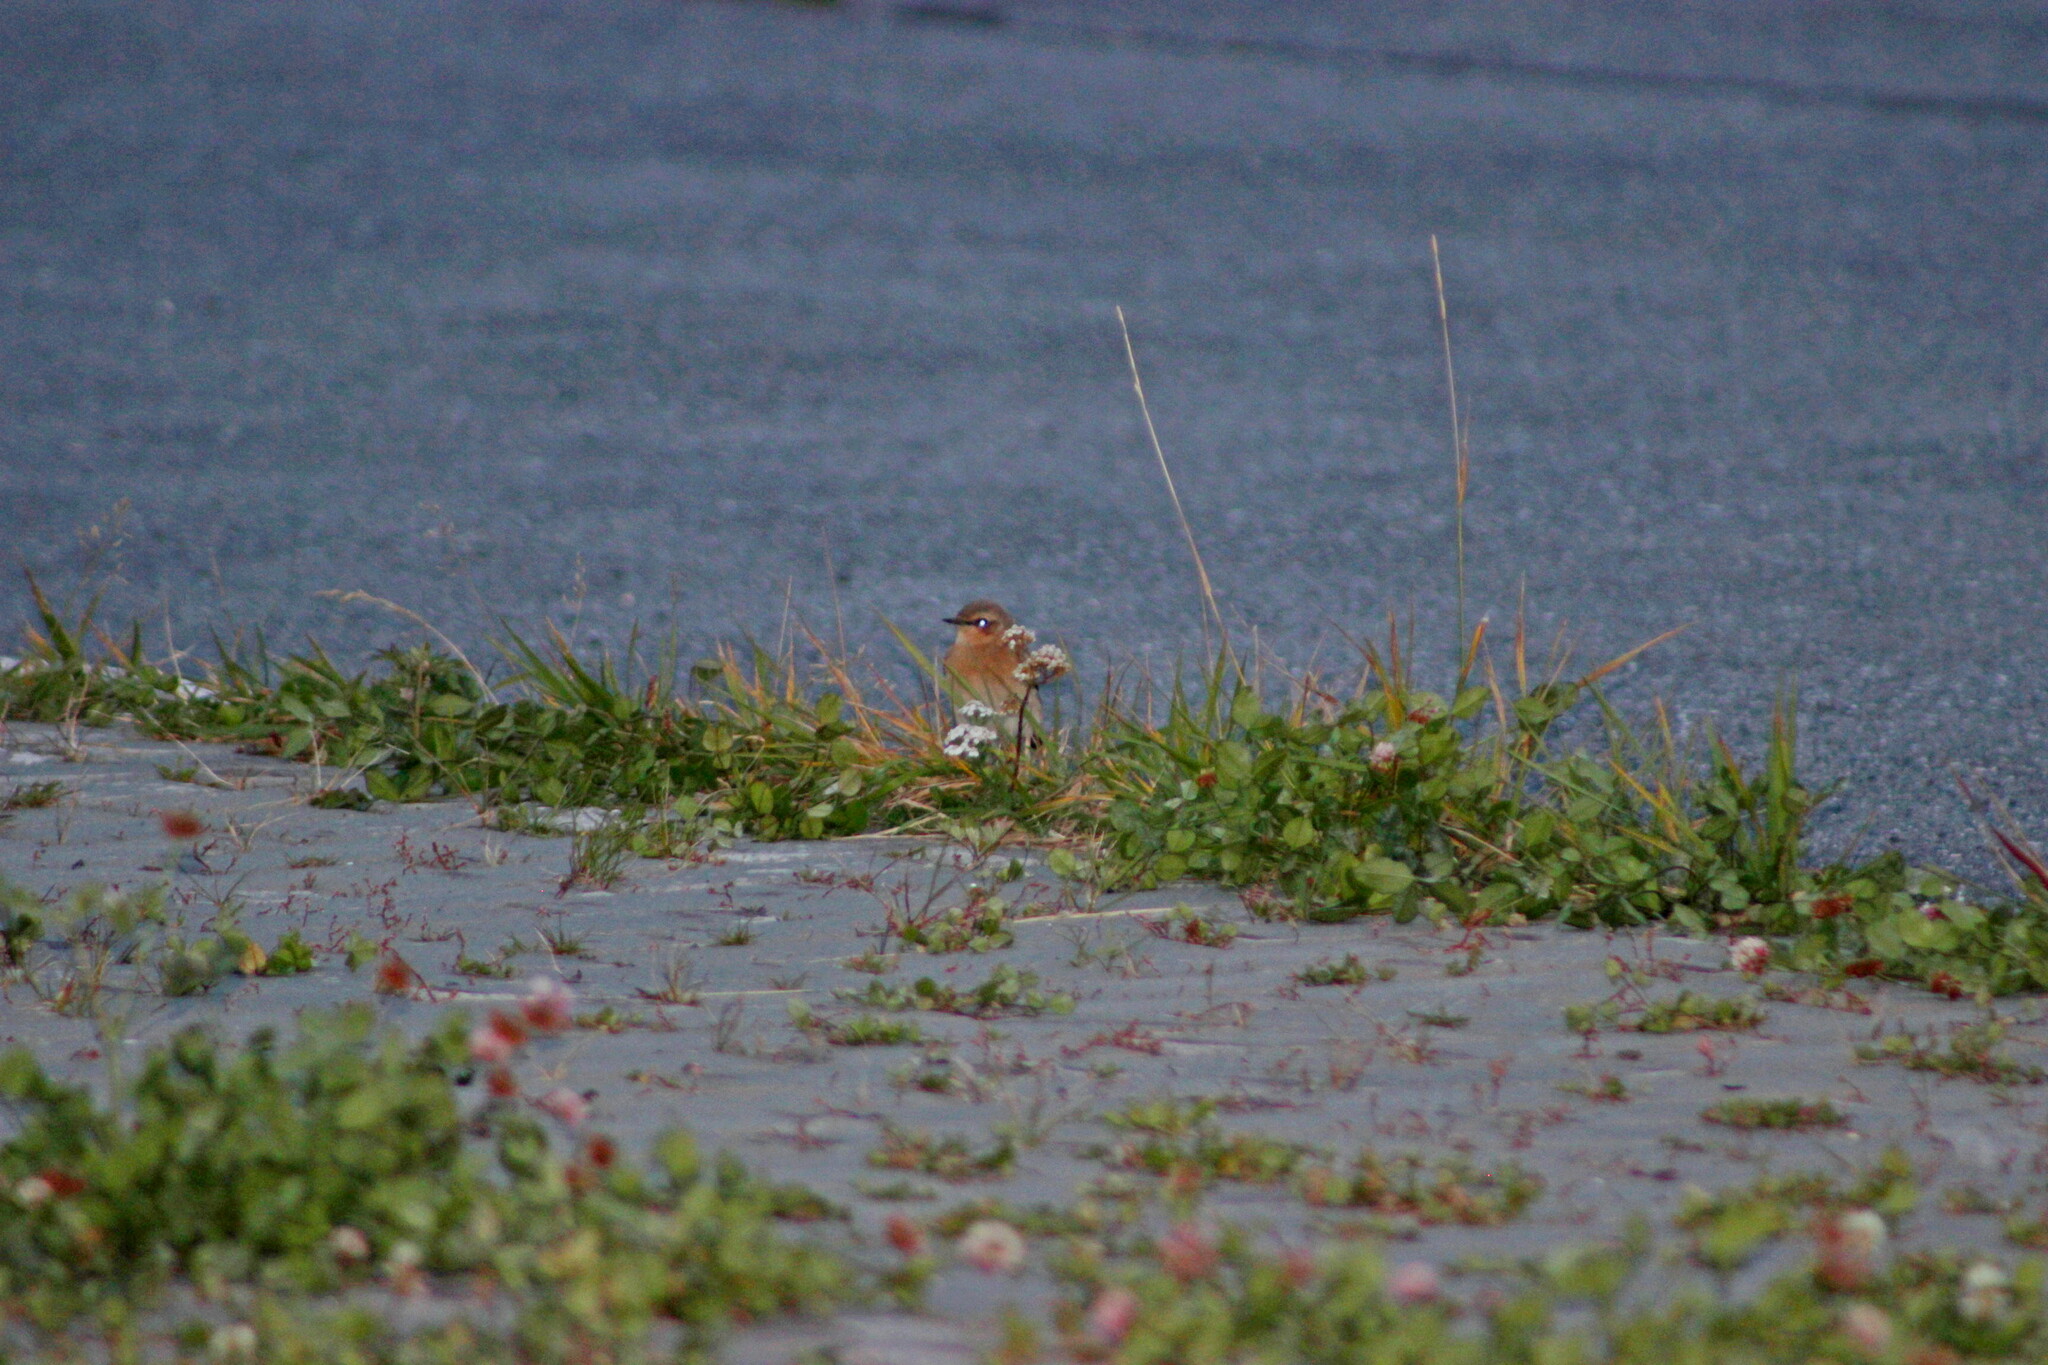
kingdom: Animalia
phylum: Chordata
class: Aves
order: Passeriformes
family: Muscicapidae
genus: Oenanthe
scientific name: Oenanthe oenanthe
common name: Northern wheatear
